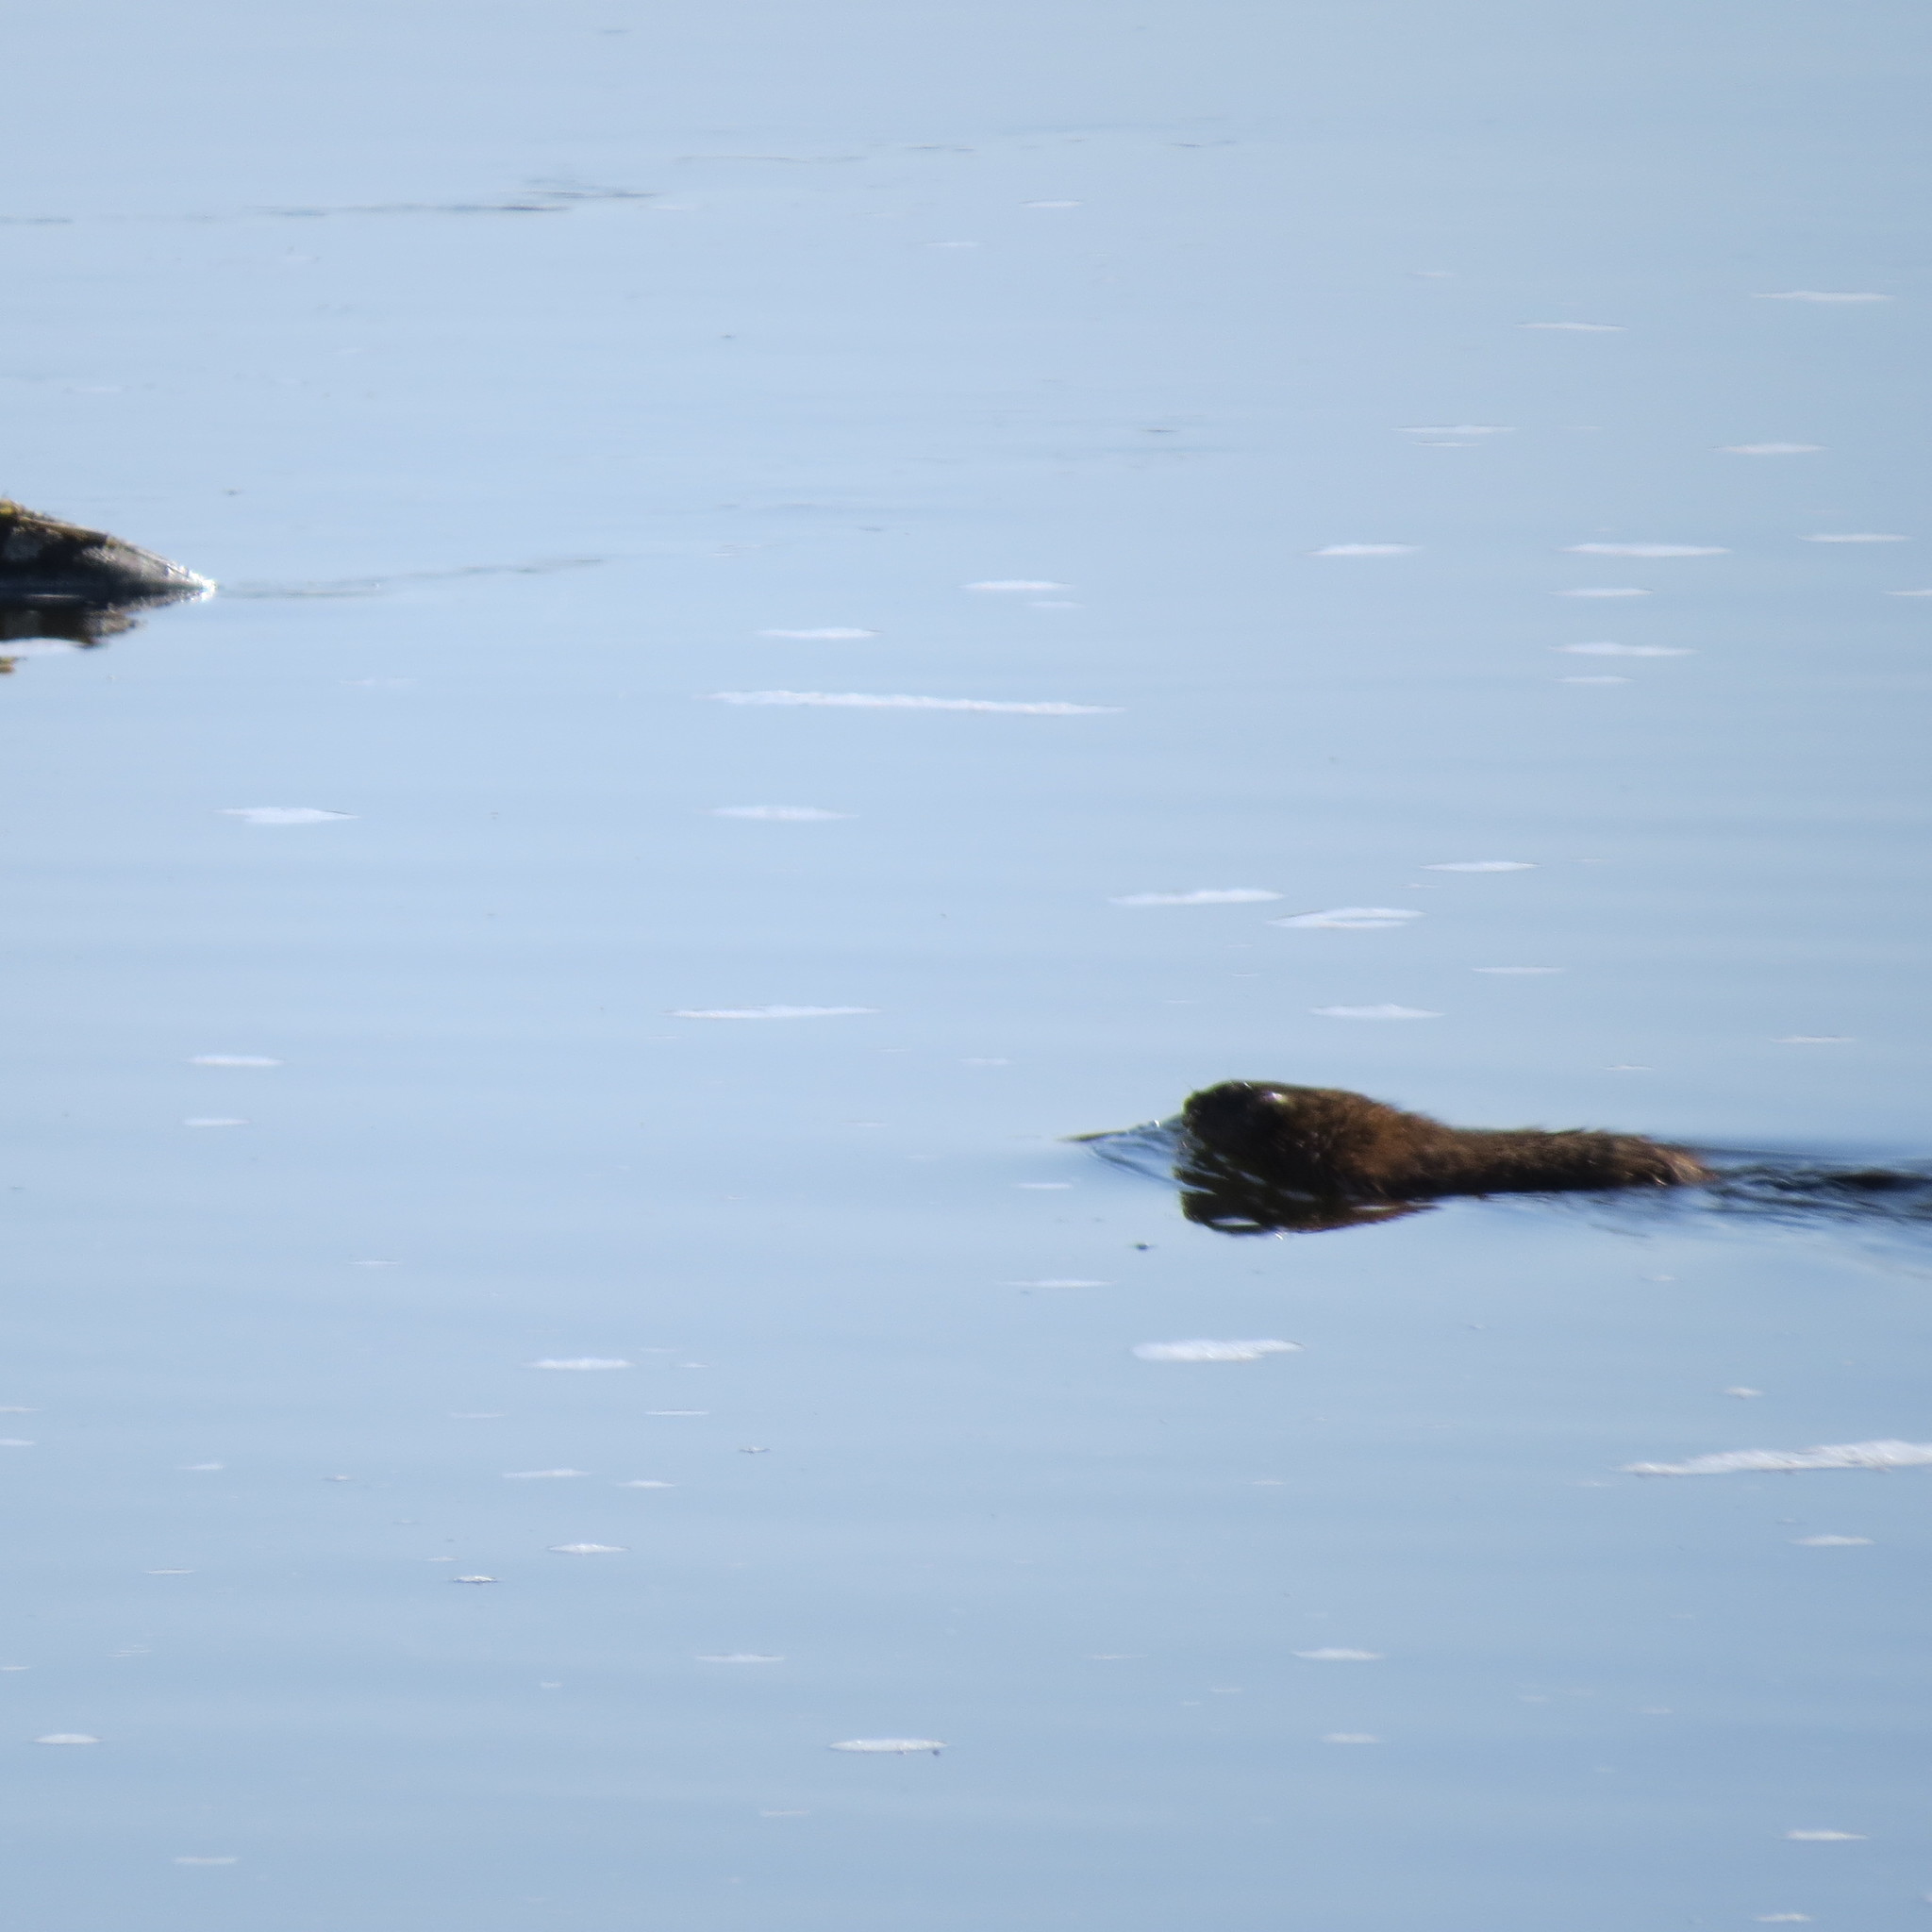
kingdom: Animalia
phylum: Chordata
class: Mammalia
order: Rodentia
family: Cricetidae
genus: Ondatra
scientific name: Ondatra zibethicus
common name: Muskrat
